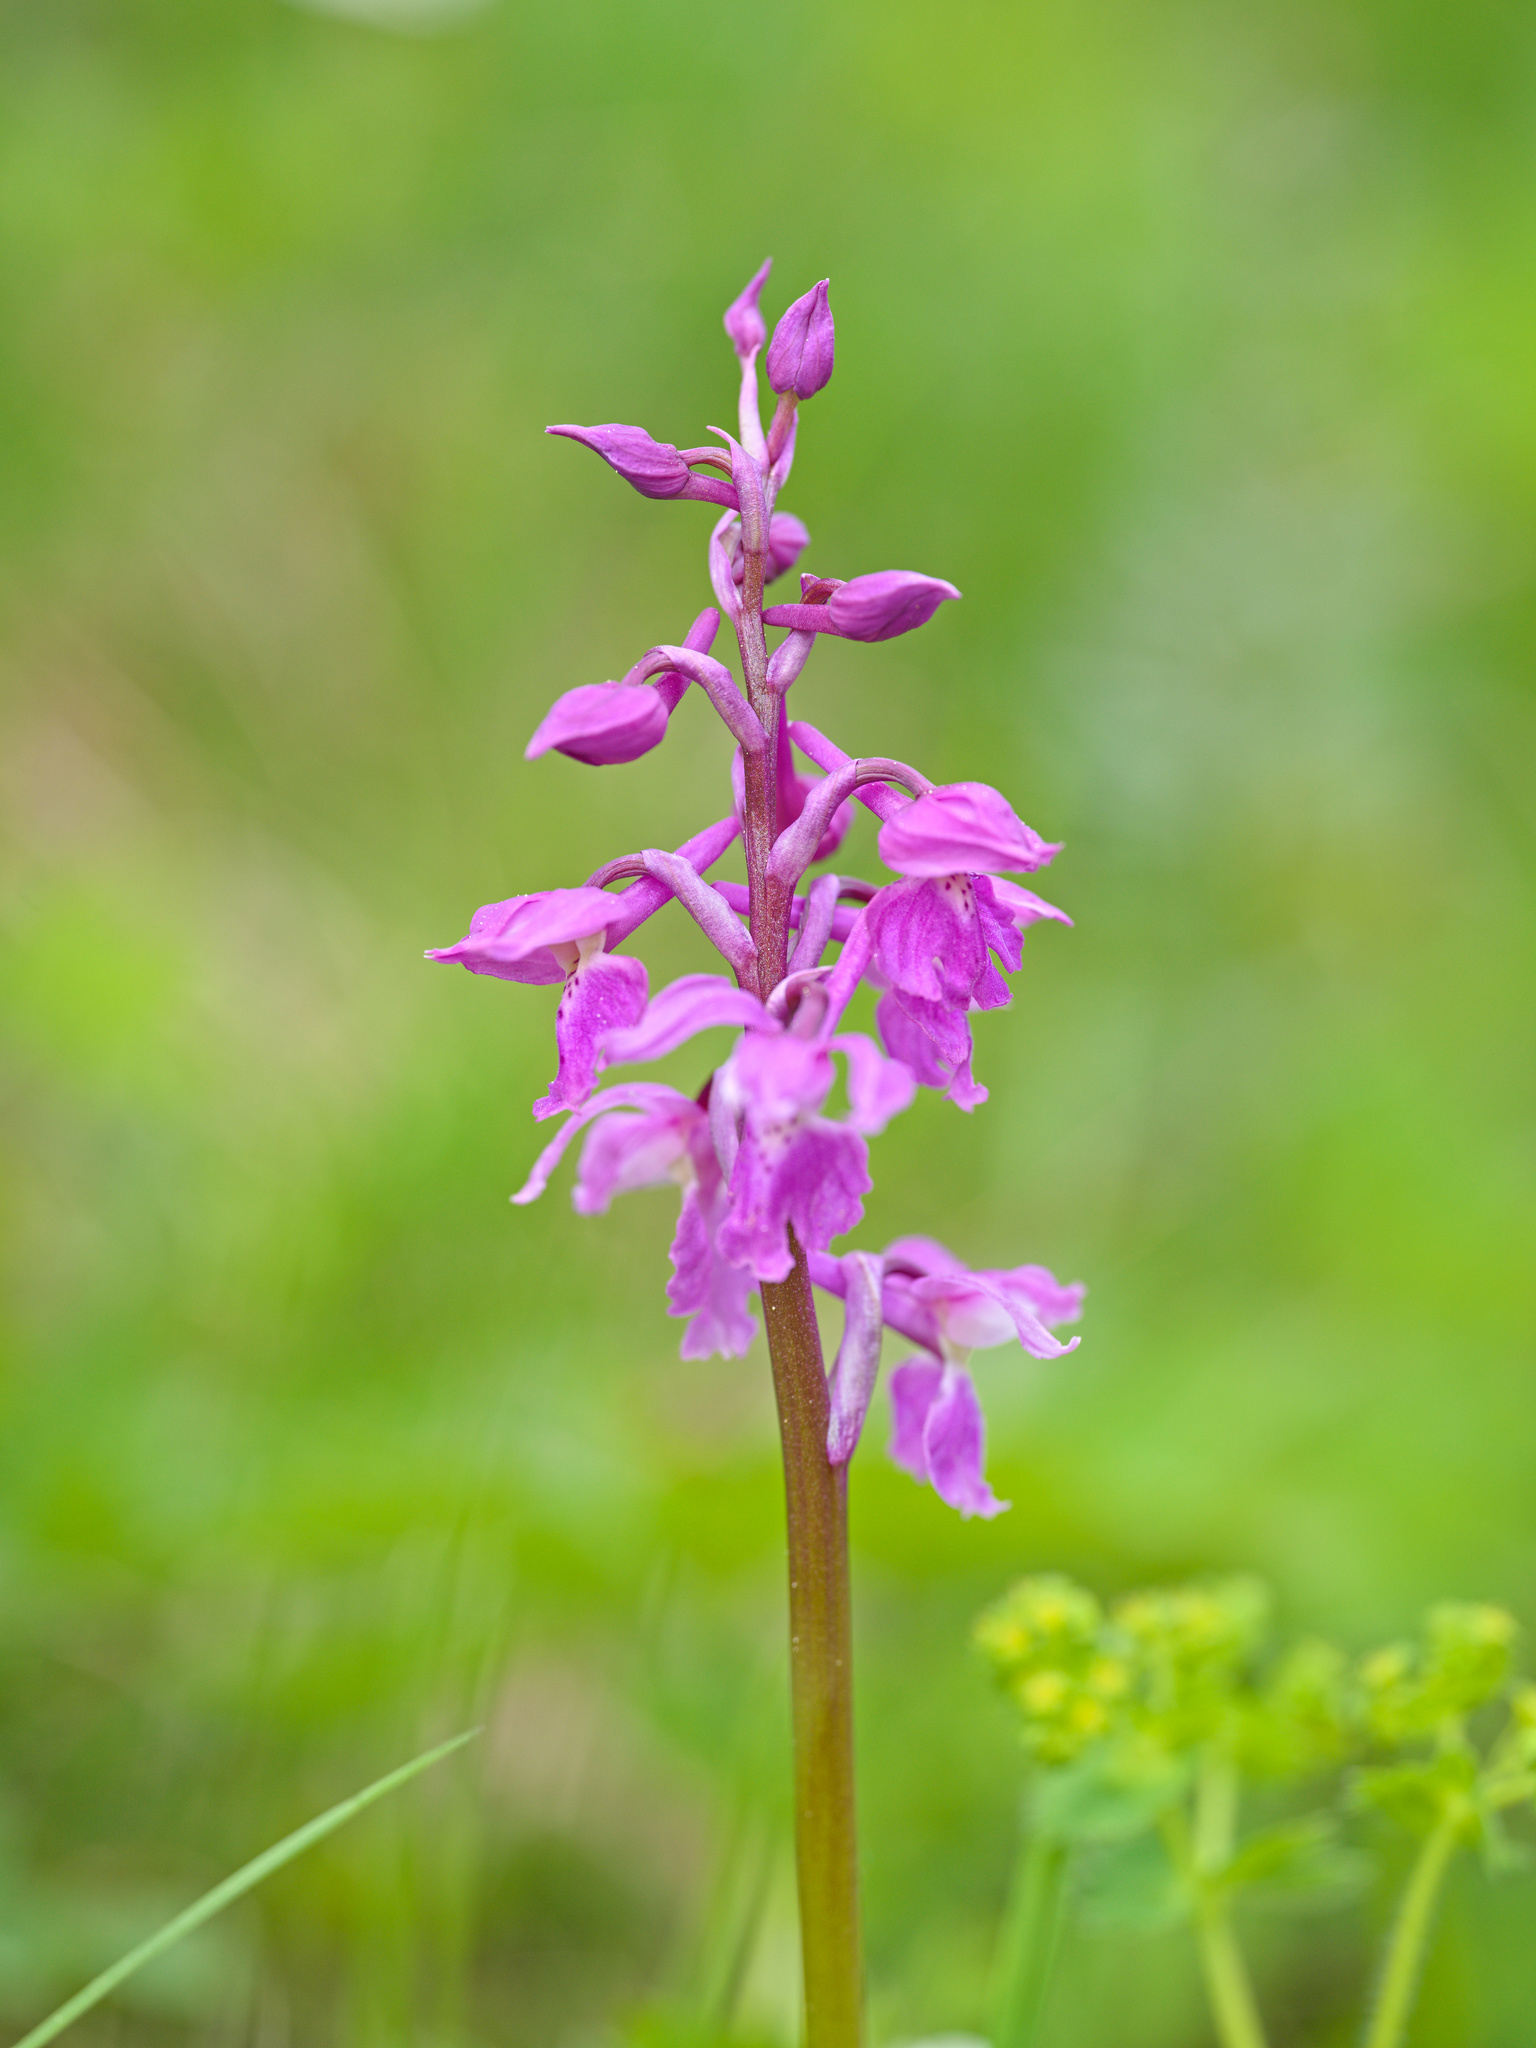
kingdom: Plantae
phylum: Tracheophyta
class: Liliopsida
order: Asparagales
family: Orchidaceae
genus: Orchis
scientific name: Orchis mascula
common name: Early-purple orchid
